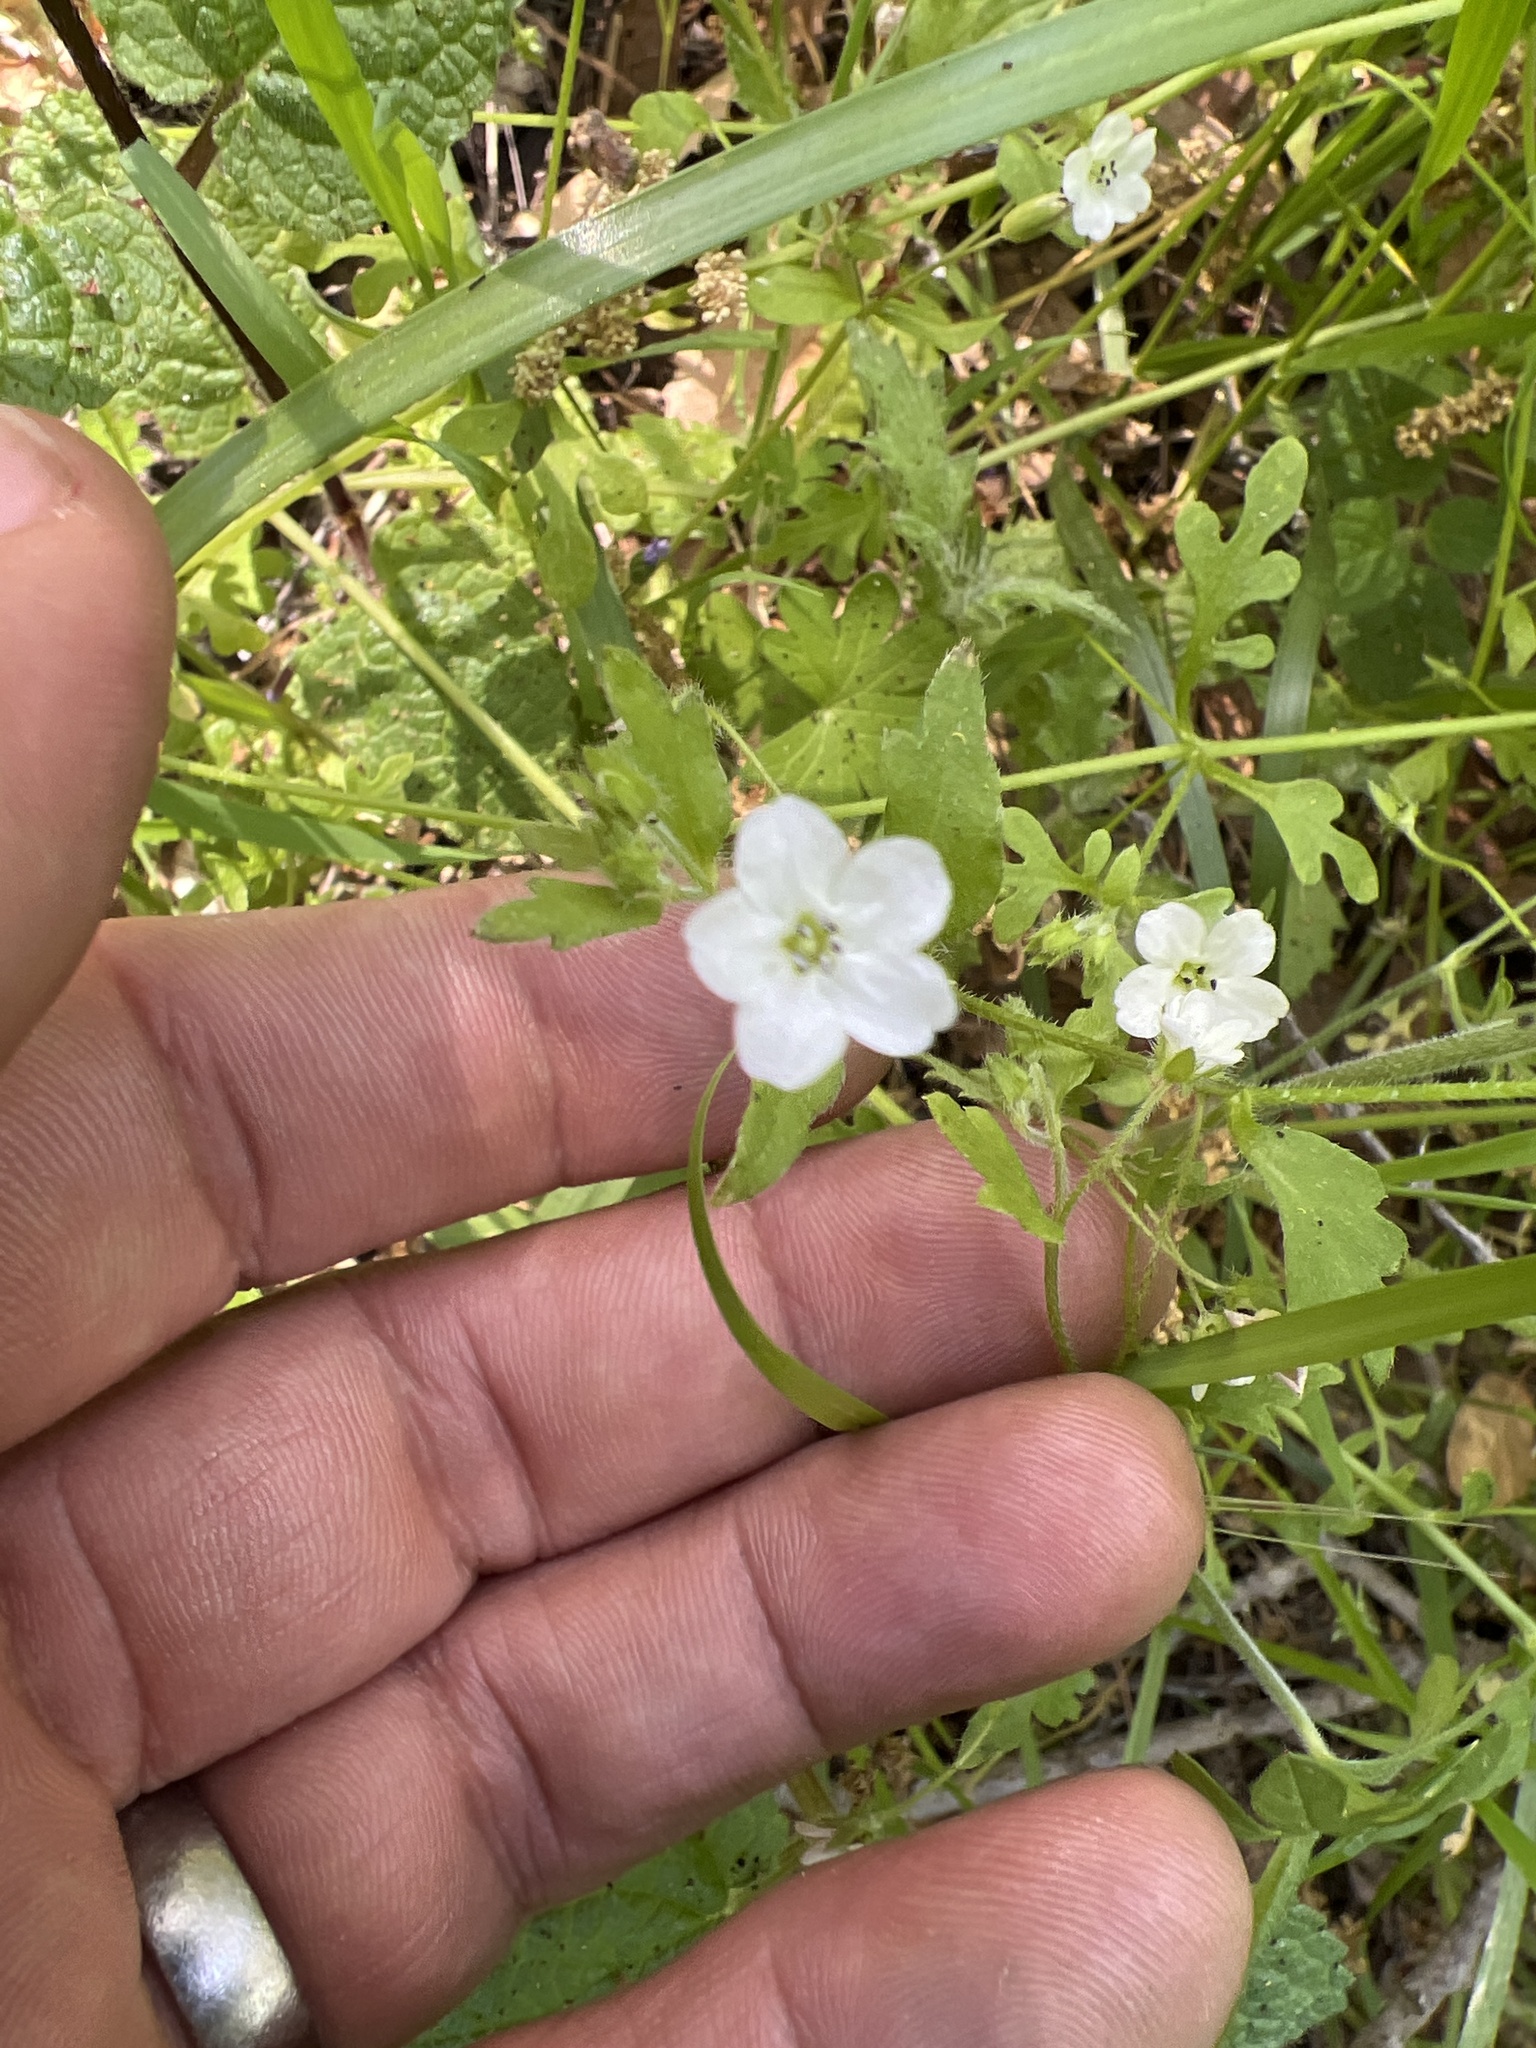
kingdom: Plantae
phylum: Tracheophyta
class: Magnoliopsida
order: Boraginales
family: Hydrophyllaceae
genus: Nemophila
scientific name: Nemophila parviflora
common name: Small-flowered baby-blue-eyes
